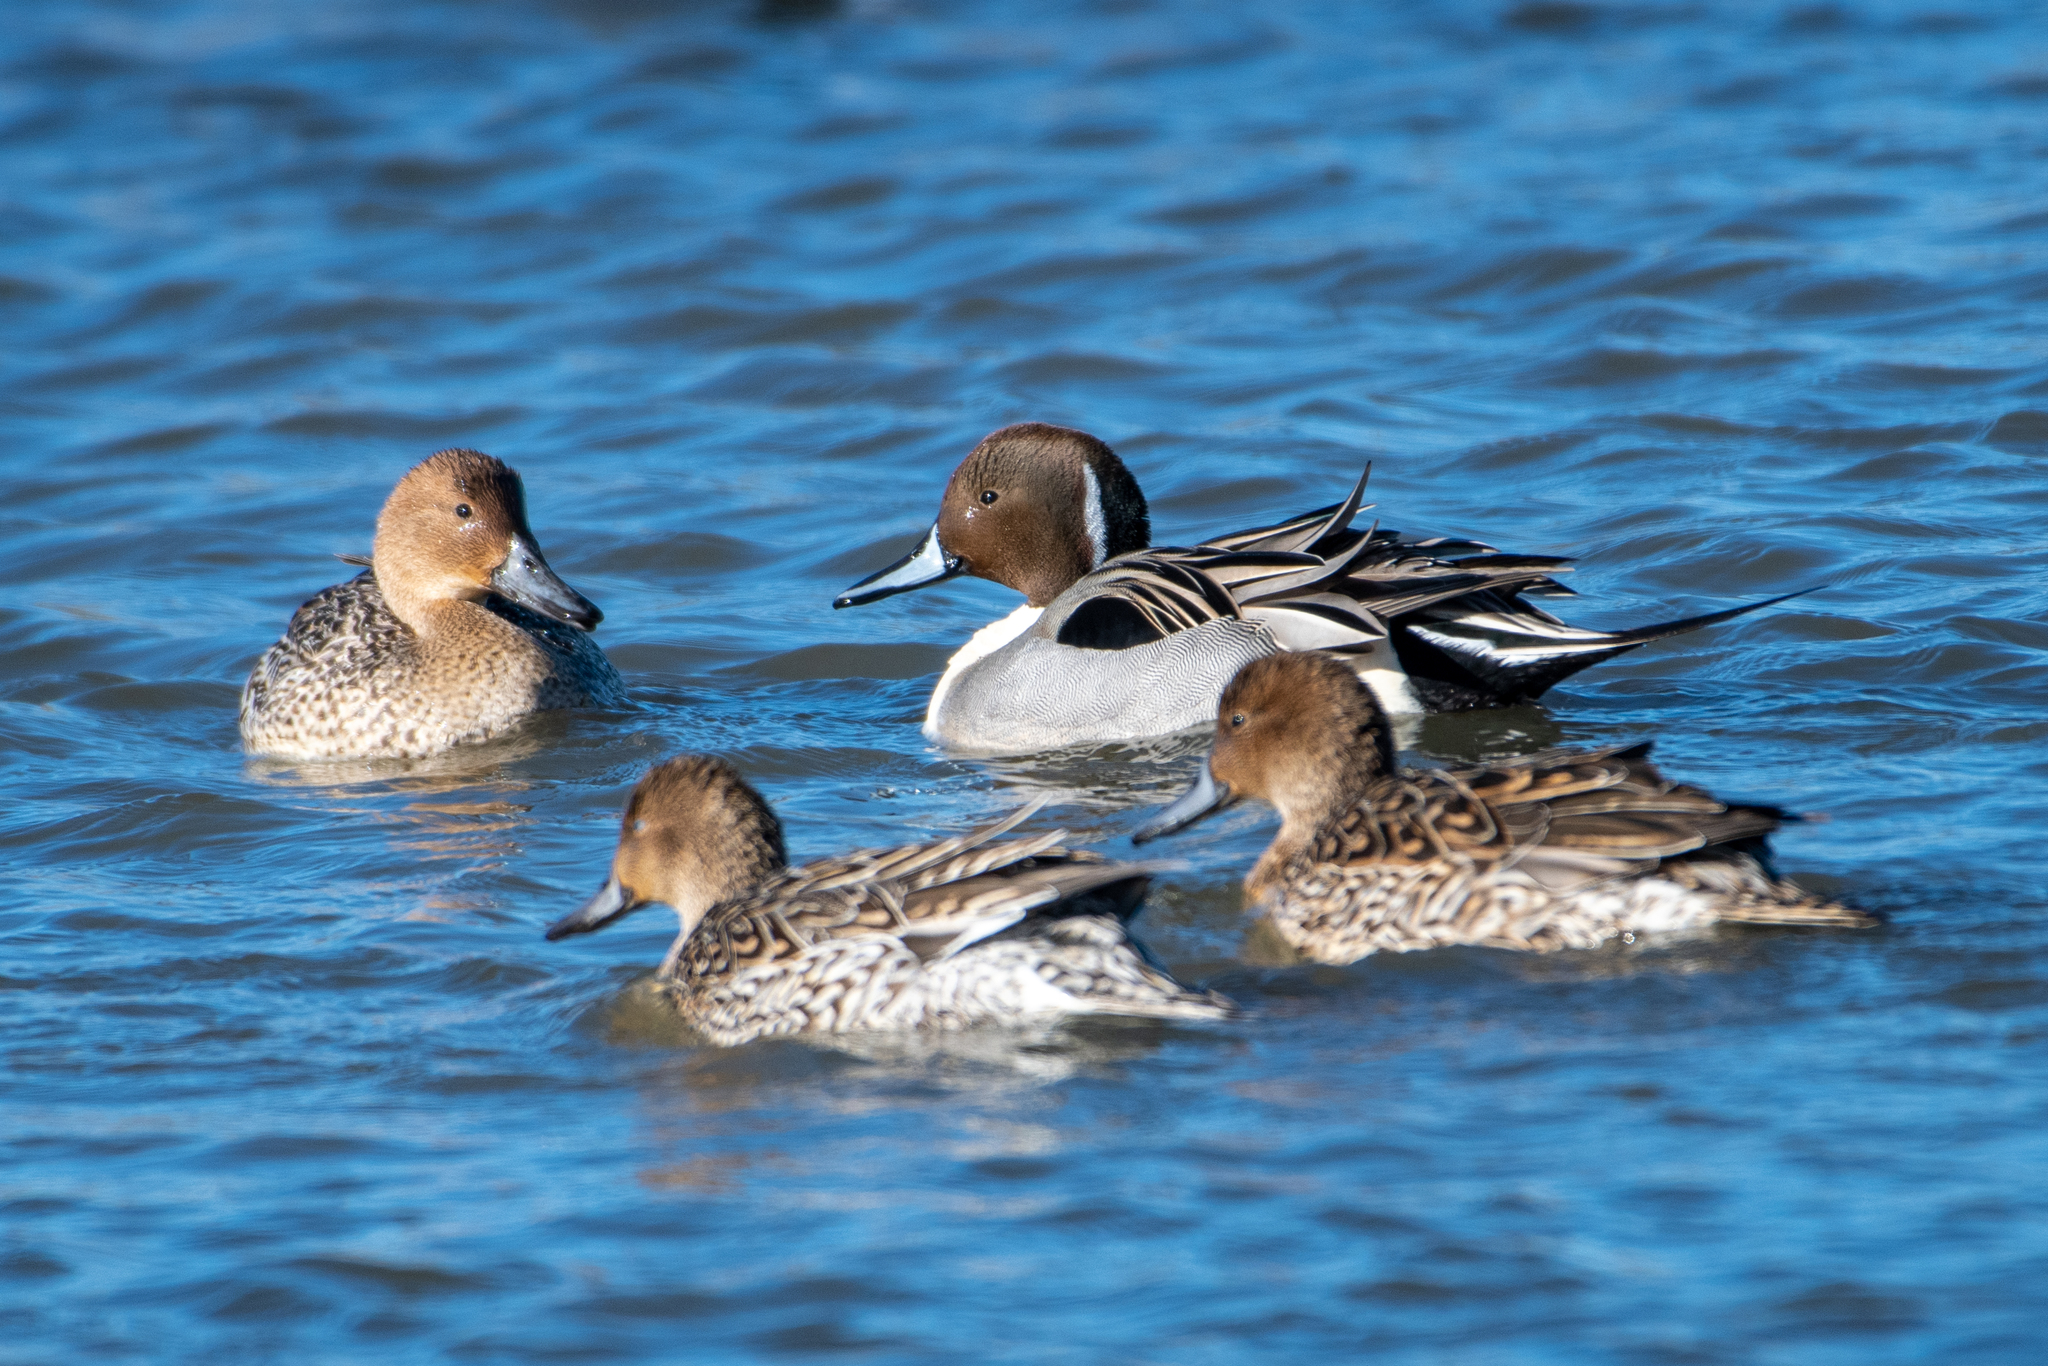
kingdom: Animalia
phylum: Chordata
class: Aves
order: Anseriformes
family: Anatidae
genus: Anas
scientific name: Anas acuta
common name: Northern pintail
